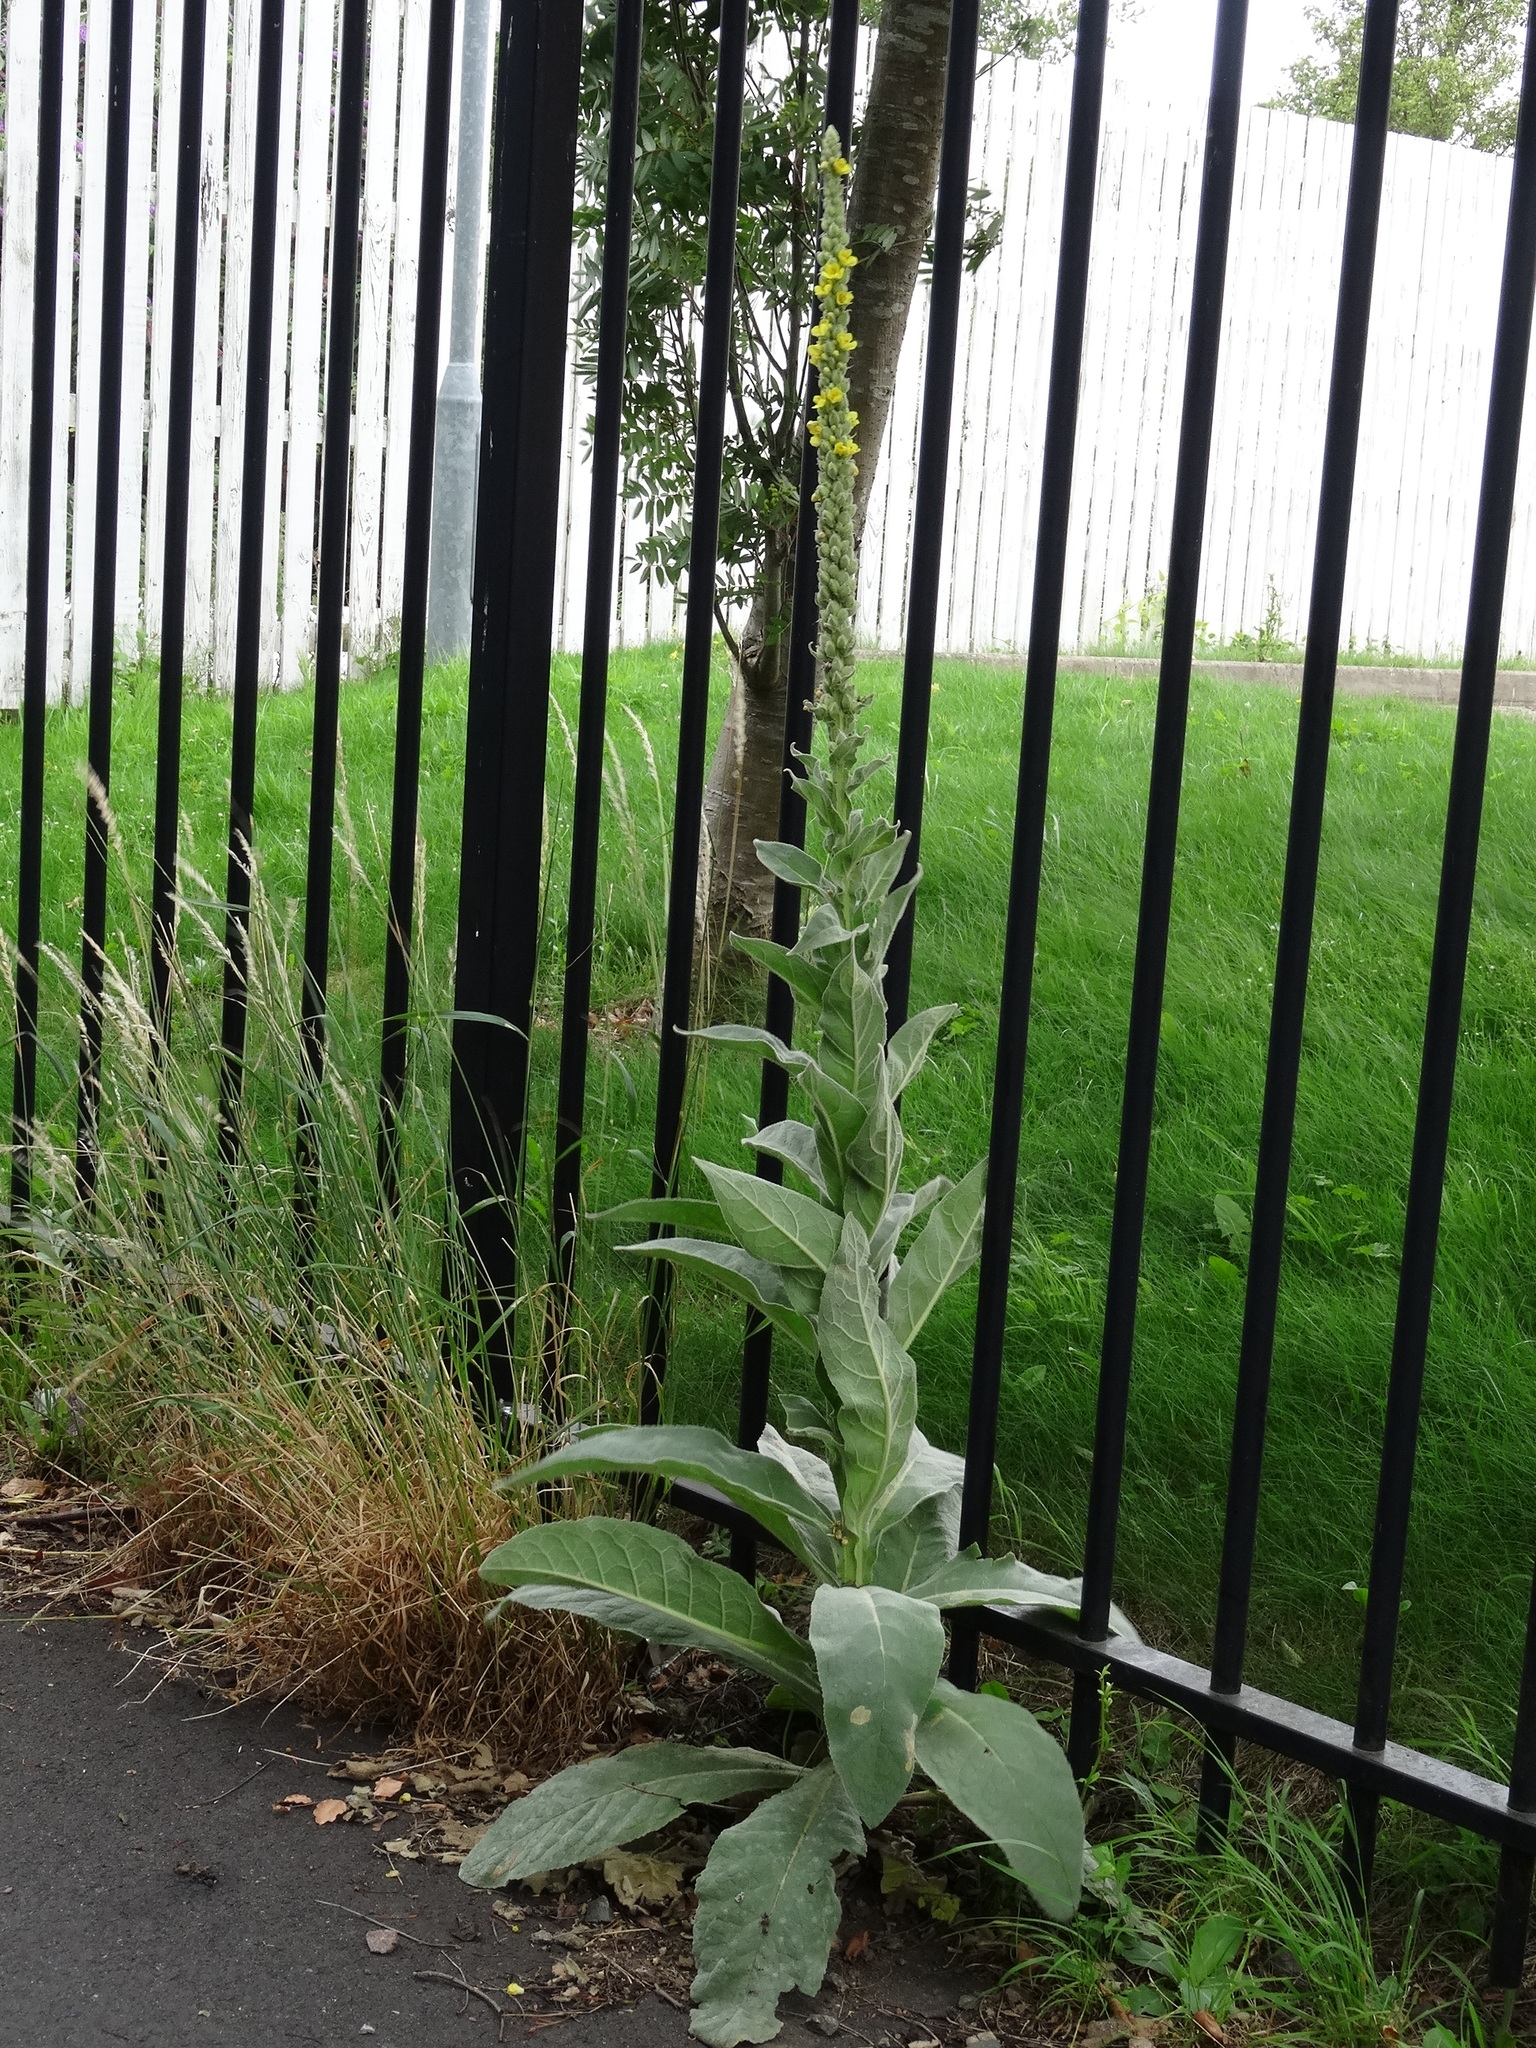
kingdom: Plantae
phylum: Tracheophyta
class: Magnoliopsida
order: Lamiales
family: Scrophulariaceae
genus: Verbascum
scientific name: Verbascum thapsus
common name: Common mullein
